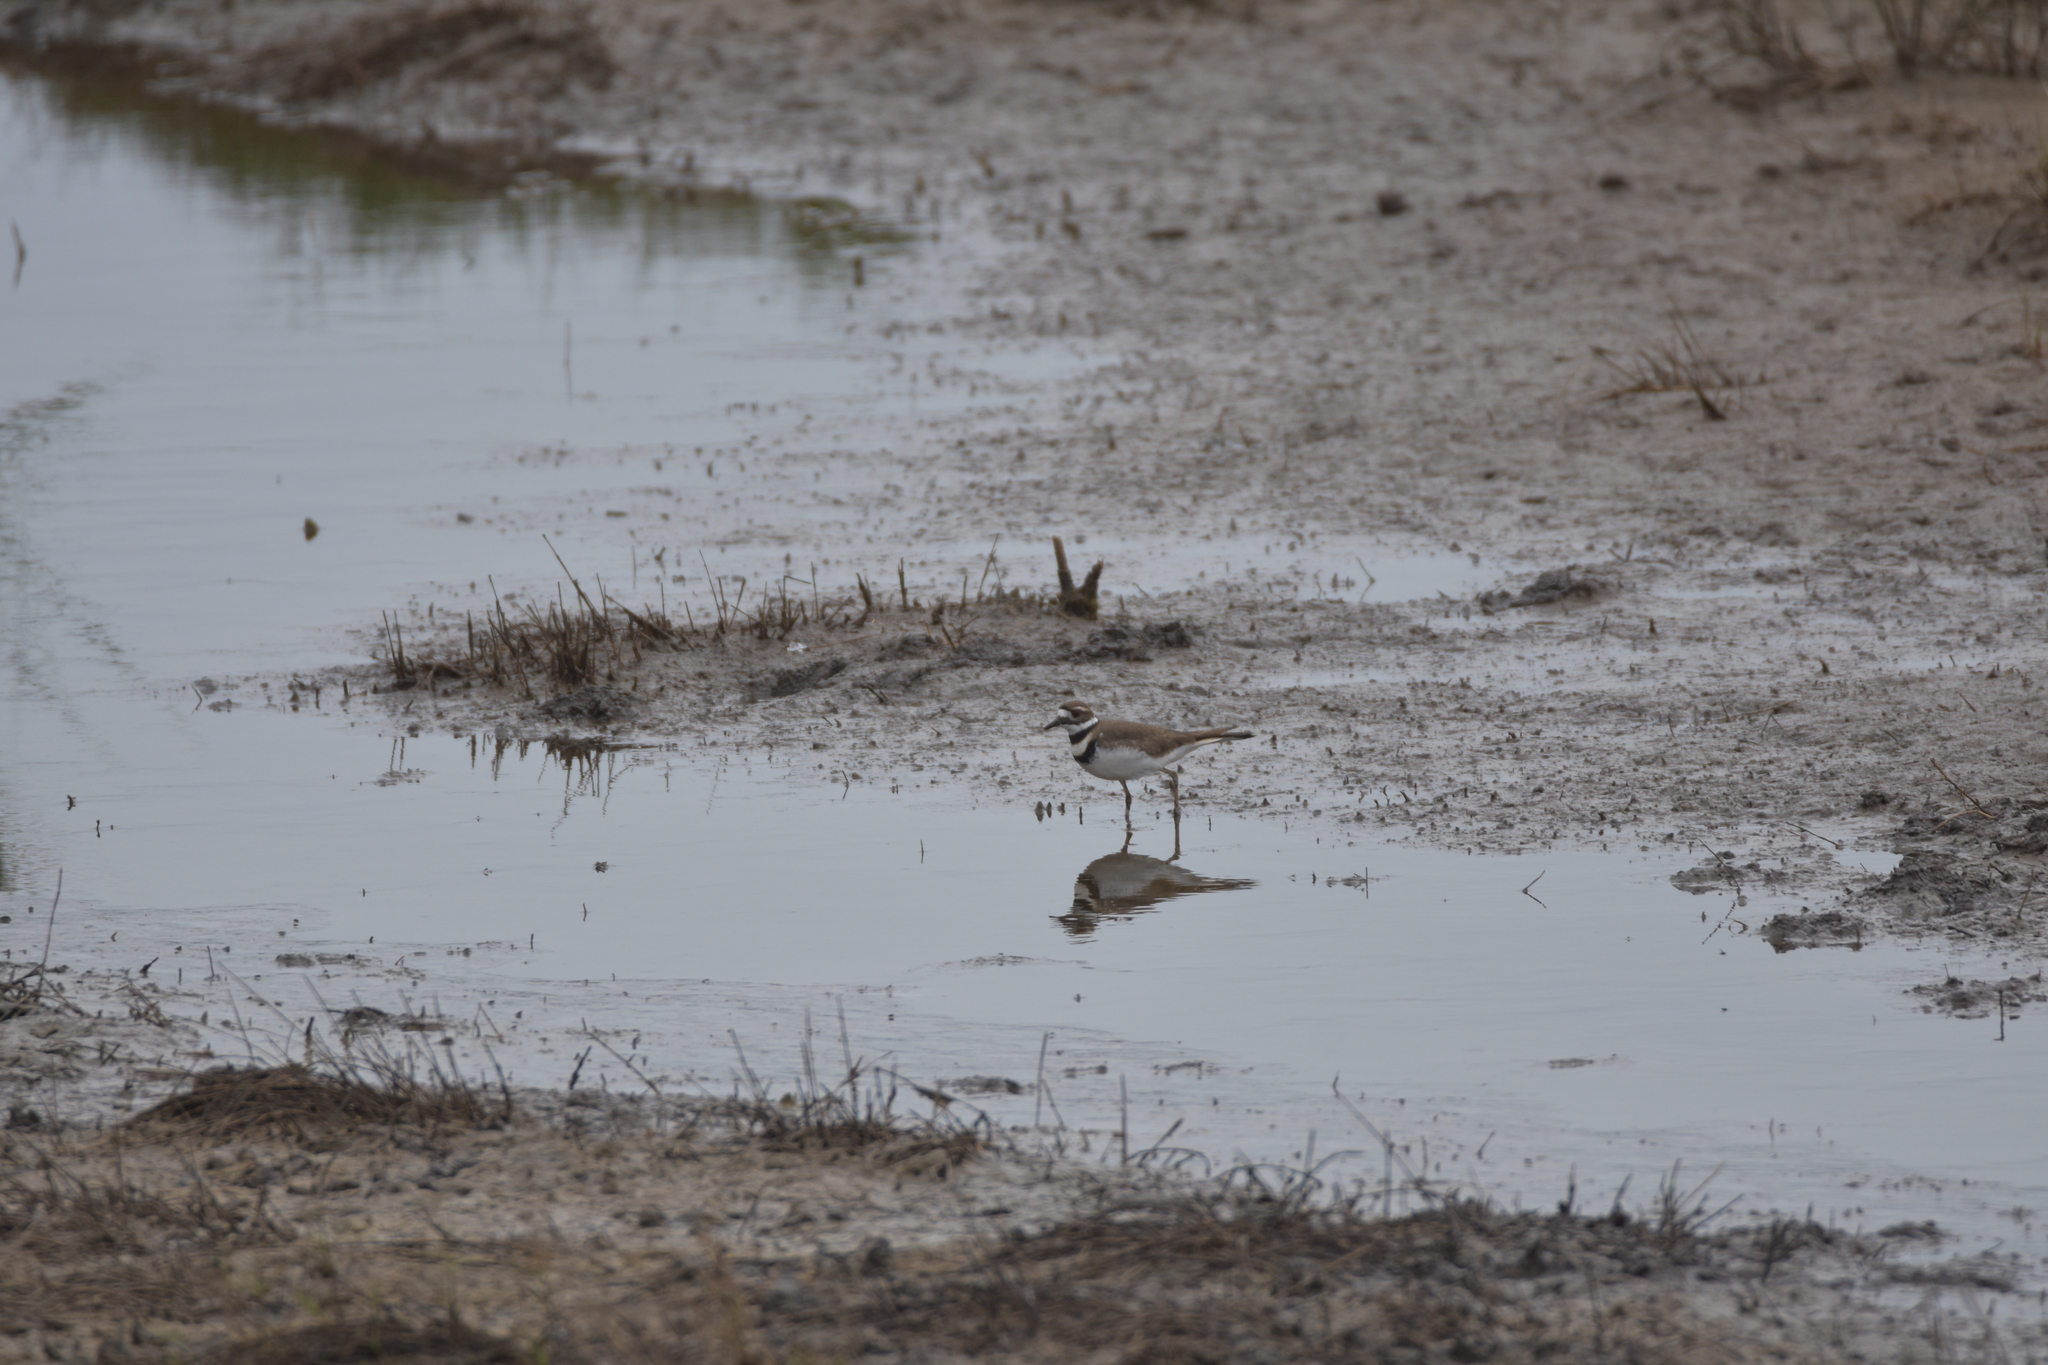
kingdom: Animalia
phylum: Chordata
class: Aves
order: Charadriiformes
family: Charadriidae
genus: Charadrius
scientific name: Charadrius vociferus
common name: Killdeer
